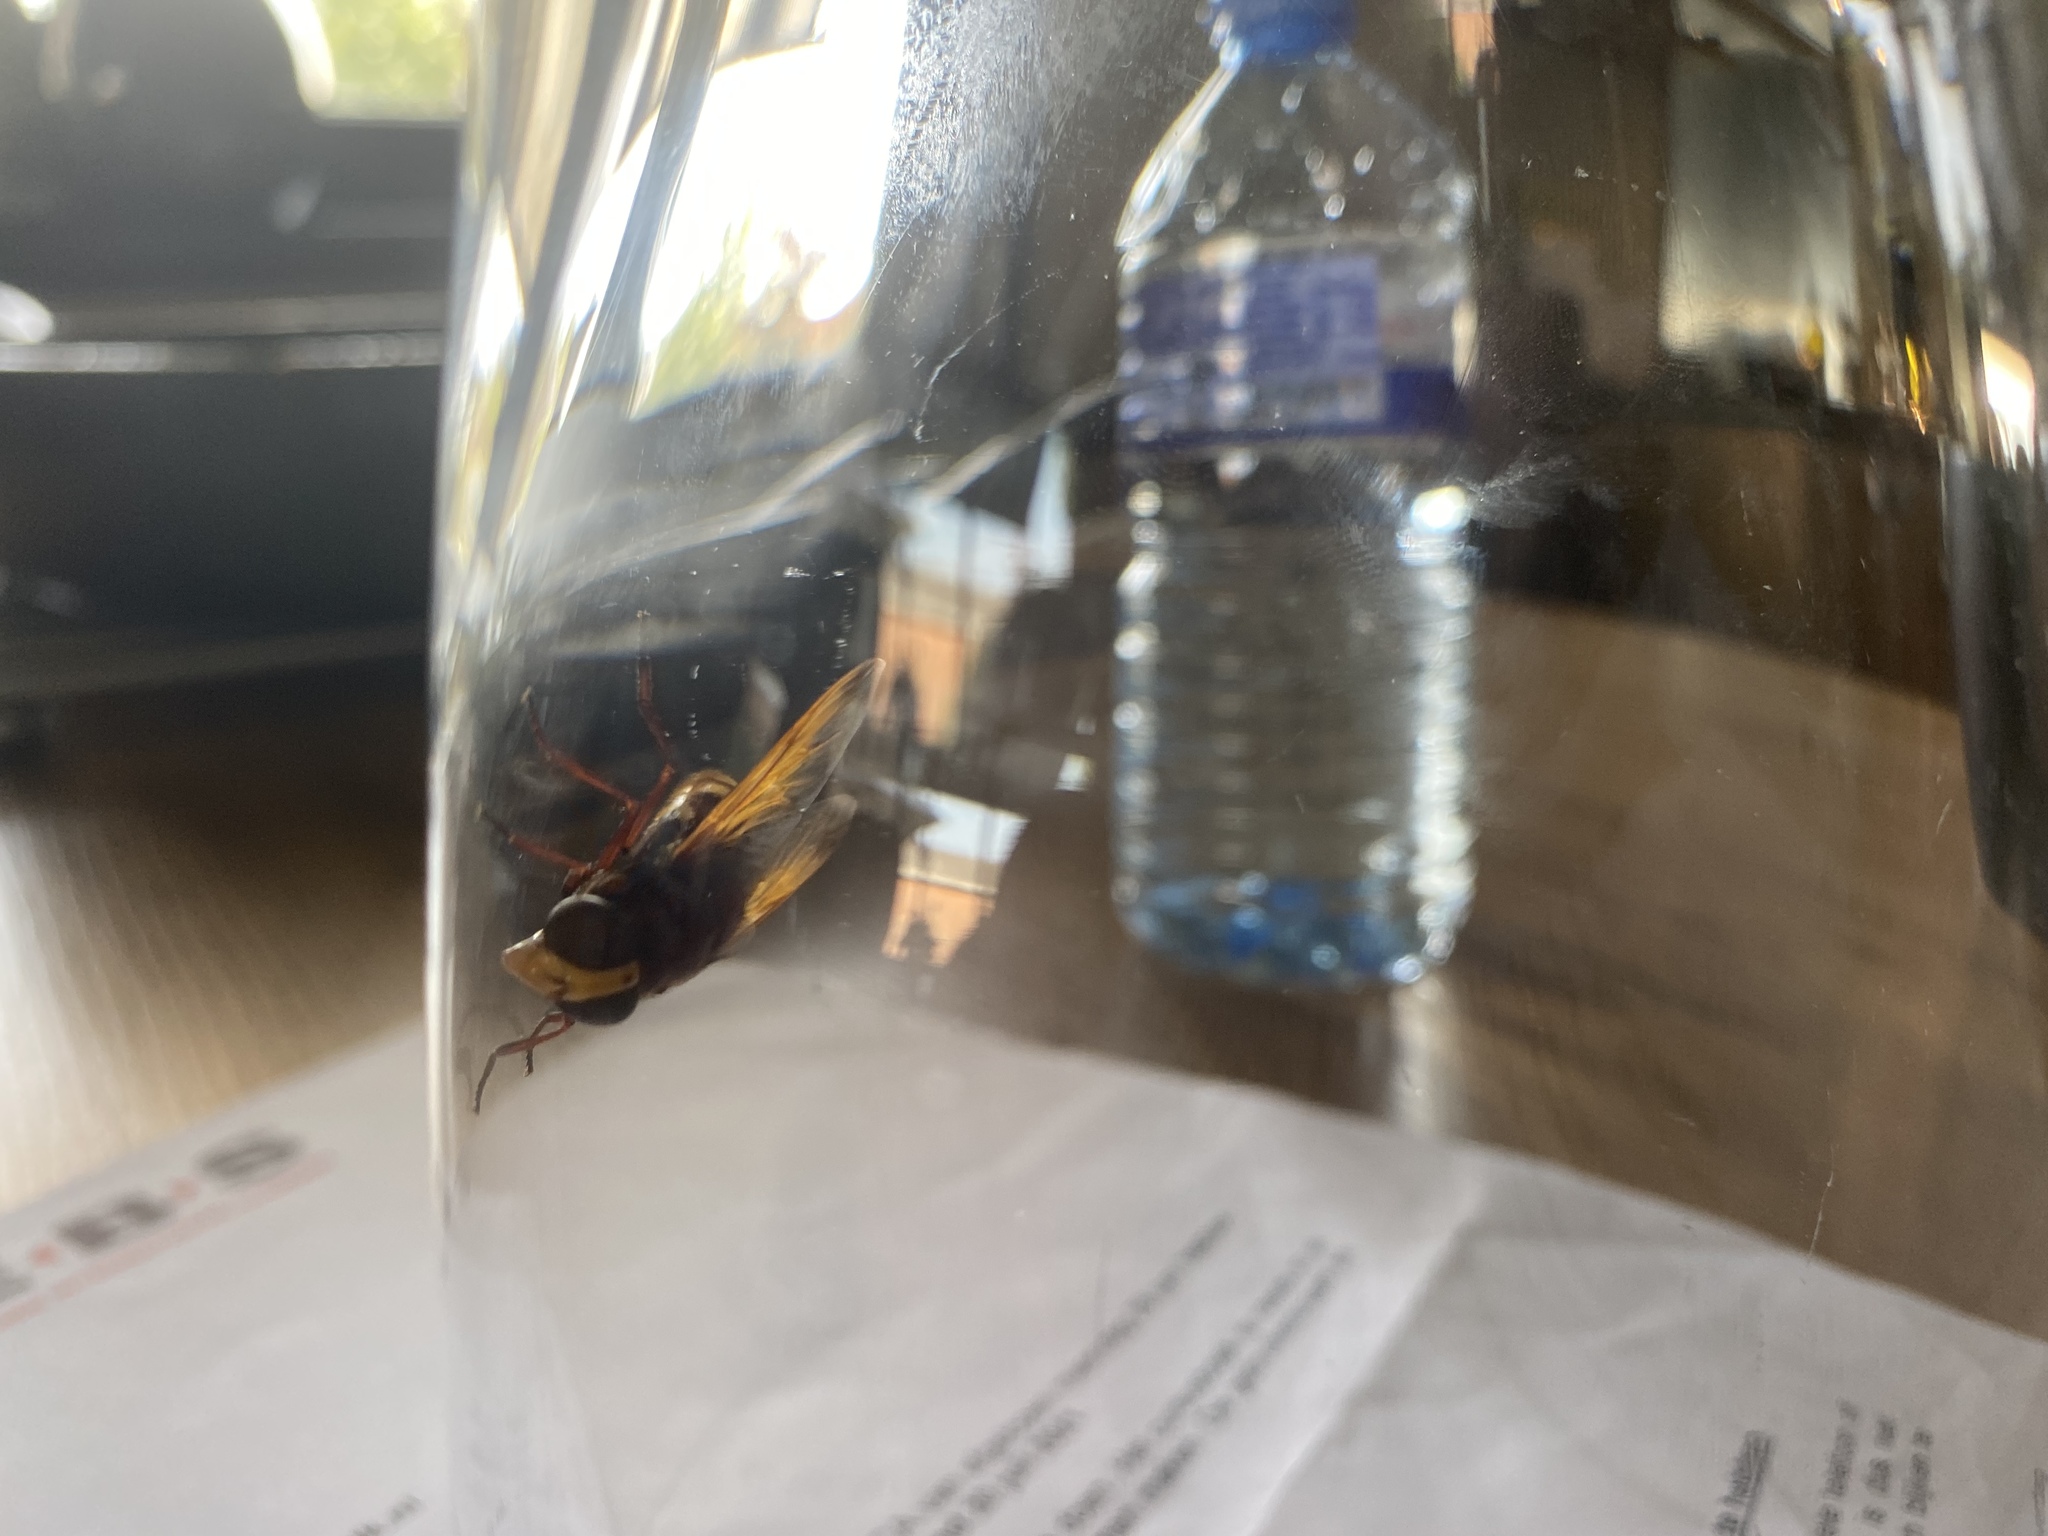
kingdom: Animalia
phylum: Arthropoda
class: Insecta
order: Diptera
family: Syrphidae
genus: Volucella
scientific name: Volucella zonaria
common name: Hornet hoverfly
